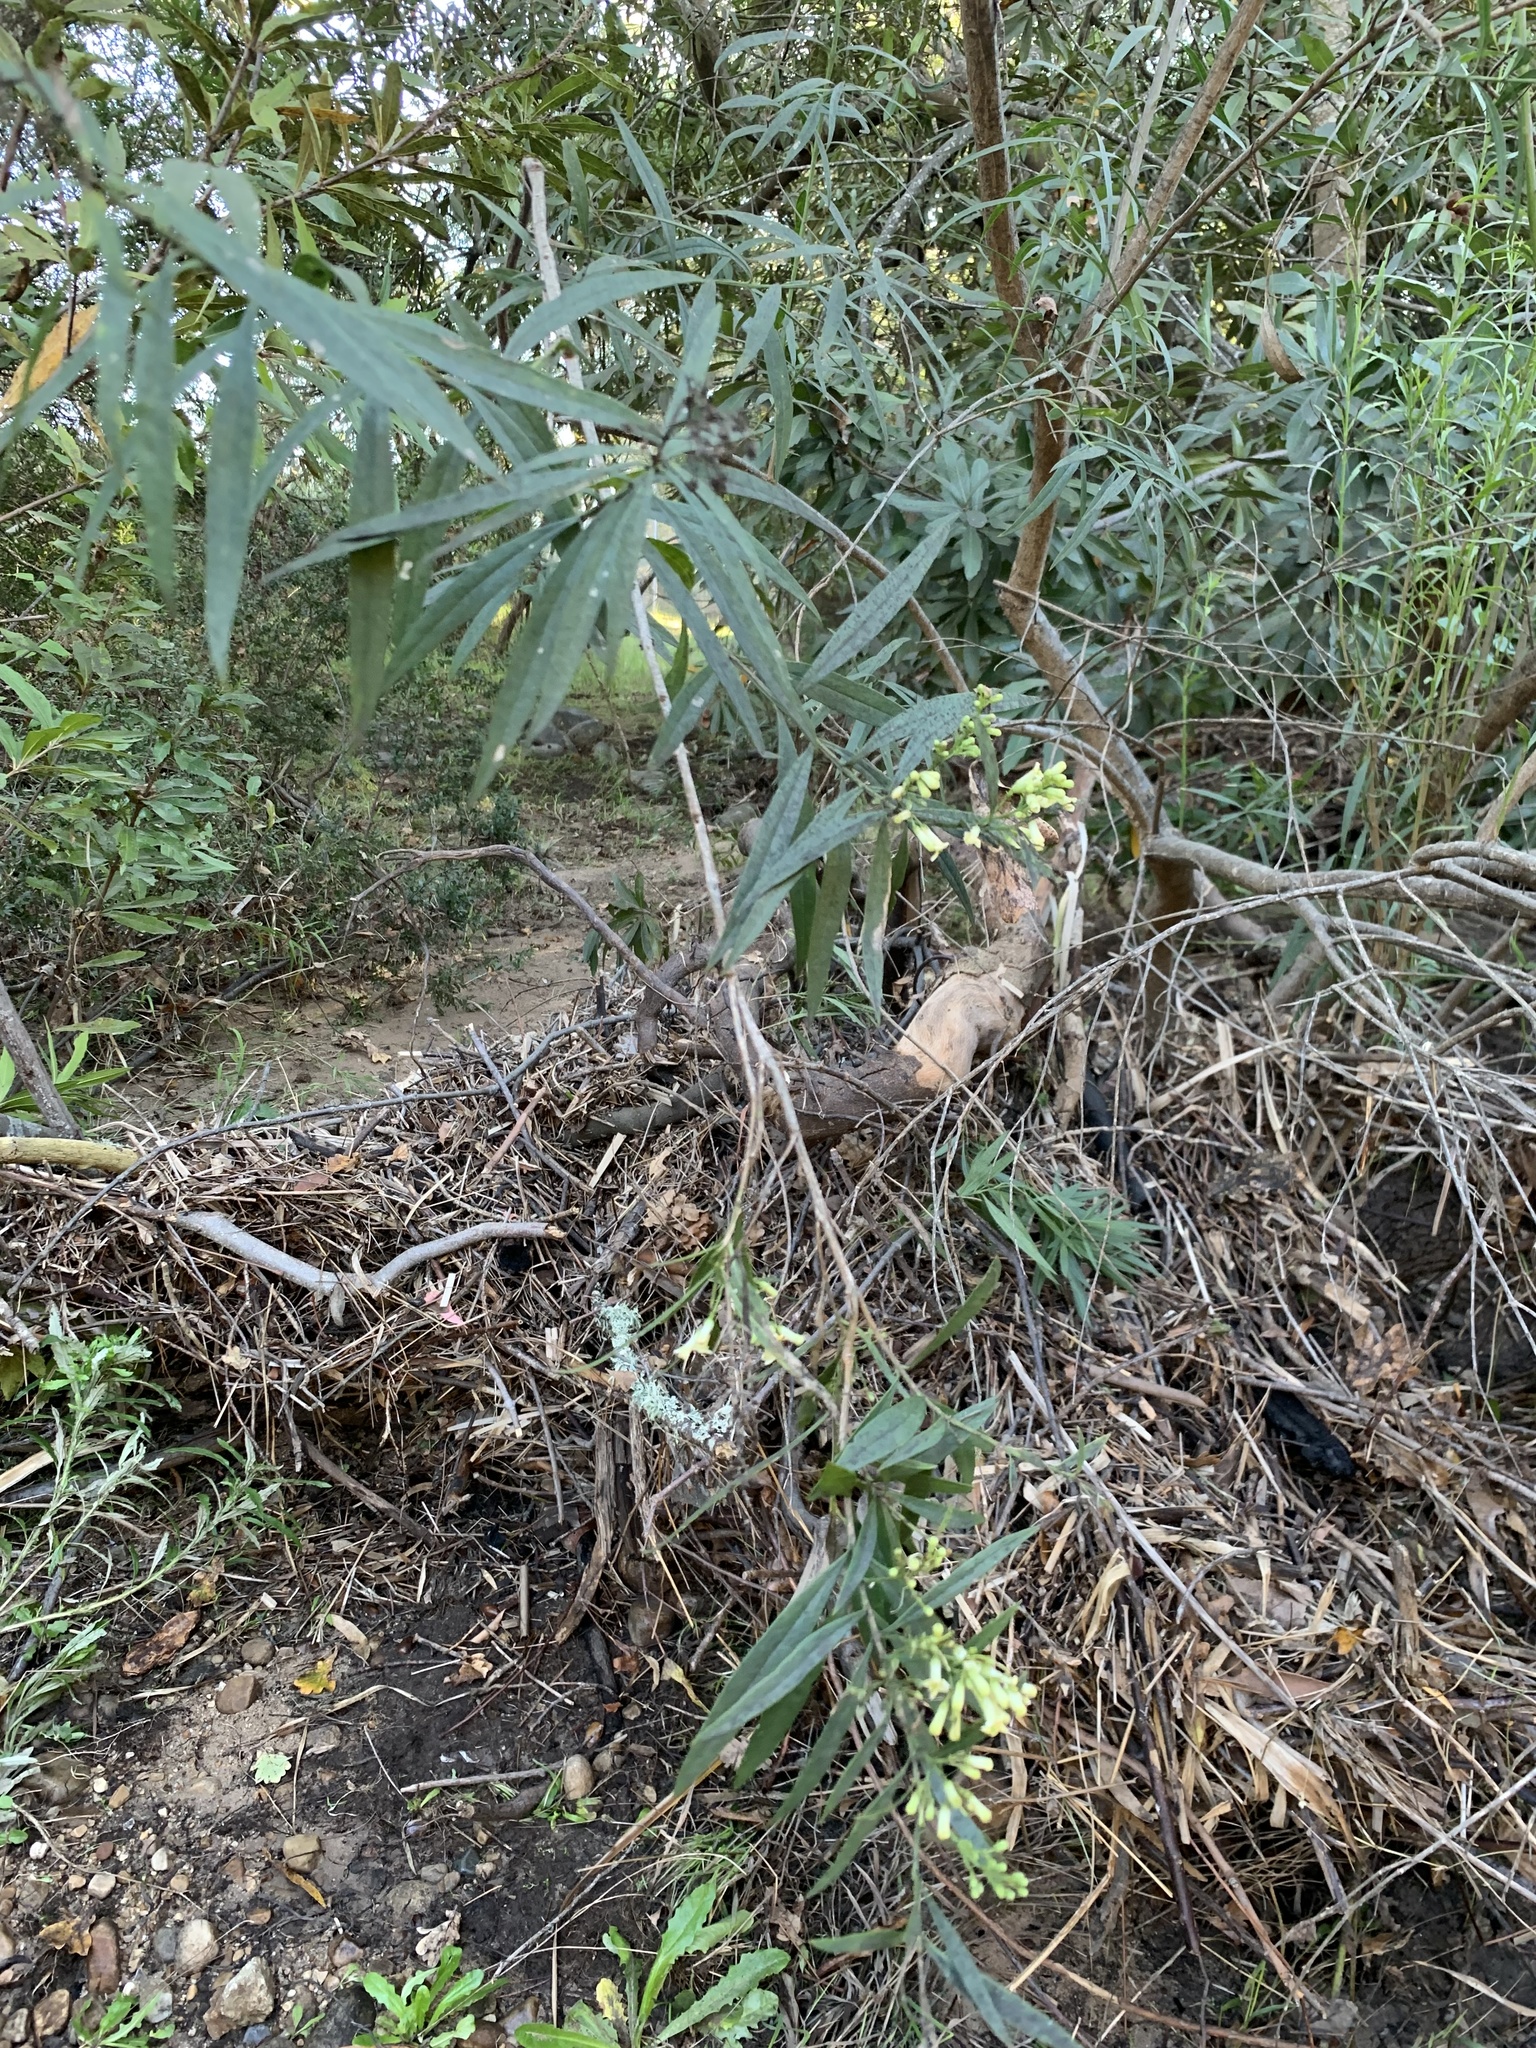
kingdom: Plantae
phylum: Tracheophyta
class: Magnoliopsida
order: Lamiales
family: Scrophulariaceae
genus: Freylinia
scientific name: Freylinia lanceolata
